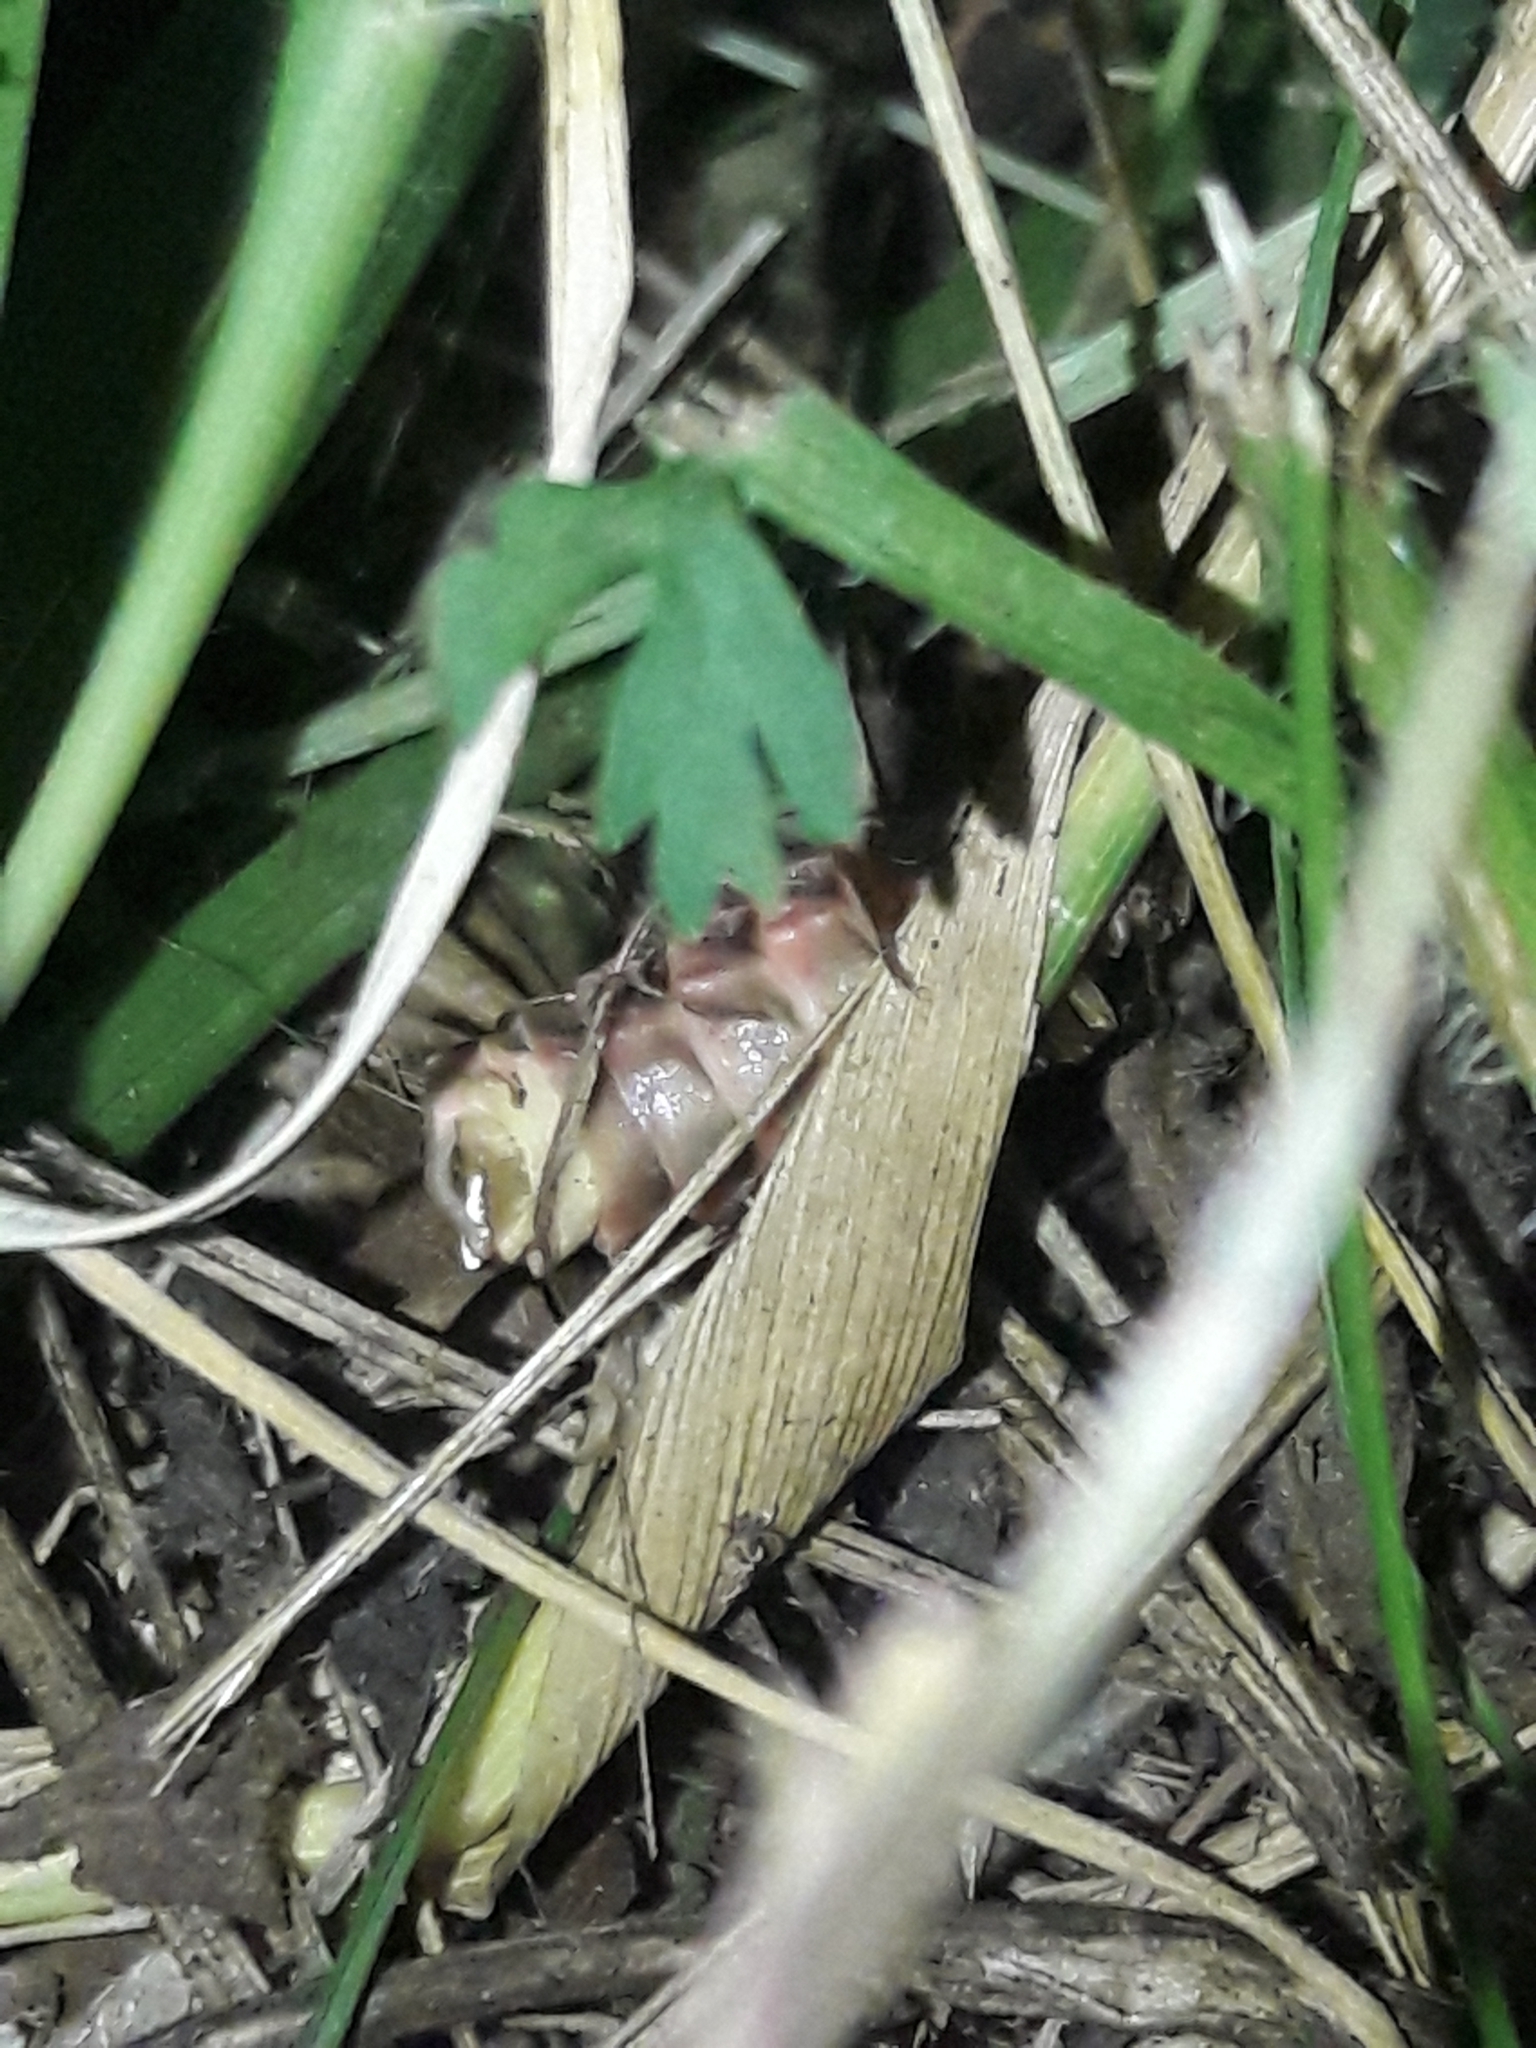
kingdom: Animalia
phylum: Arthropoda
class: Insecta
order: Coleoptera
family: Lampyridae
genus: Lampyris
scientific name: Lampyris noctiluca
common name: Glow-worm
